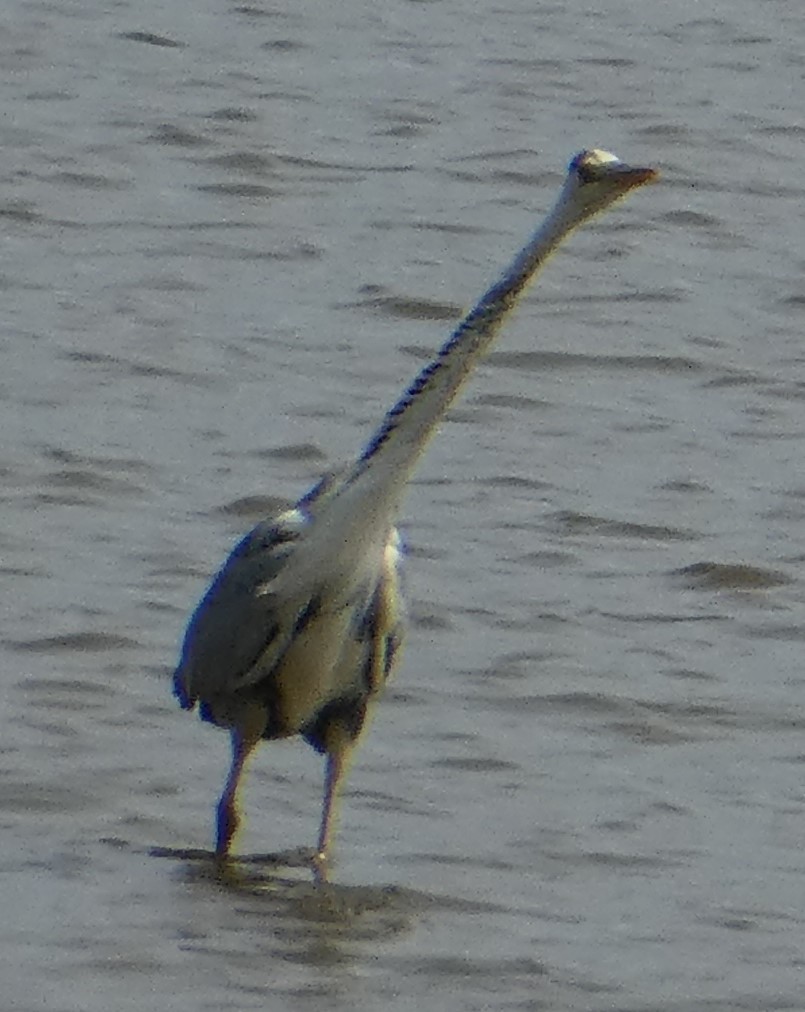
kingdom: Animalia
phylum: Chordata
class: Aves
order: Pelecaniformes
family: Ardeidae
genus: Ardea
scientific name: Ardea cinerea
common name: Grey heron
